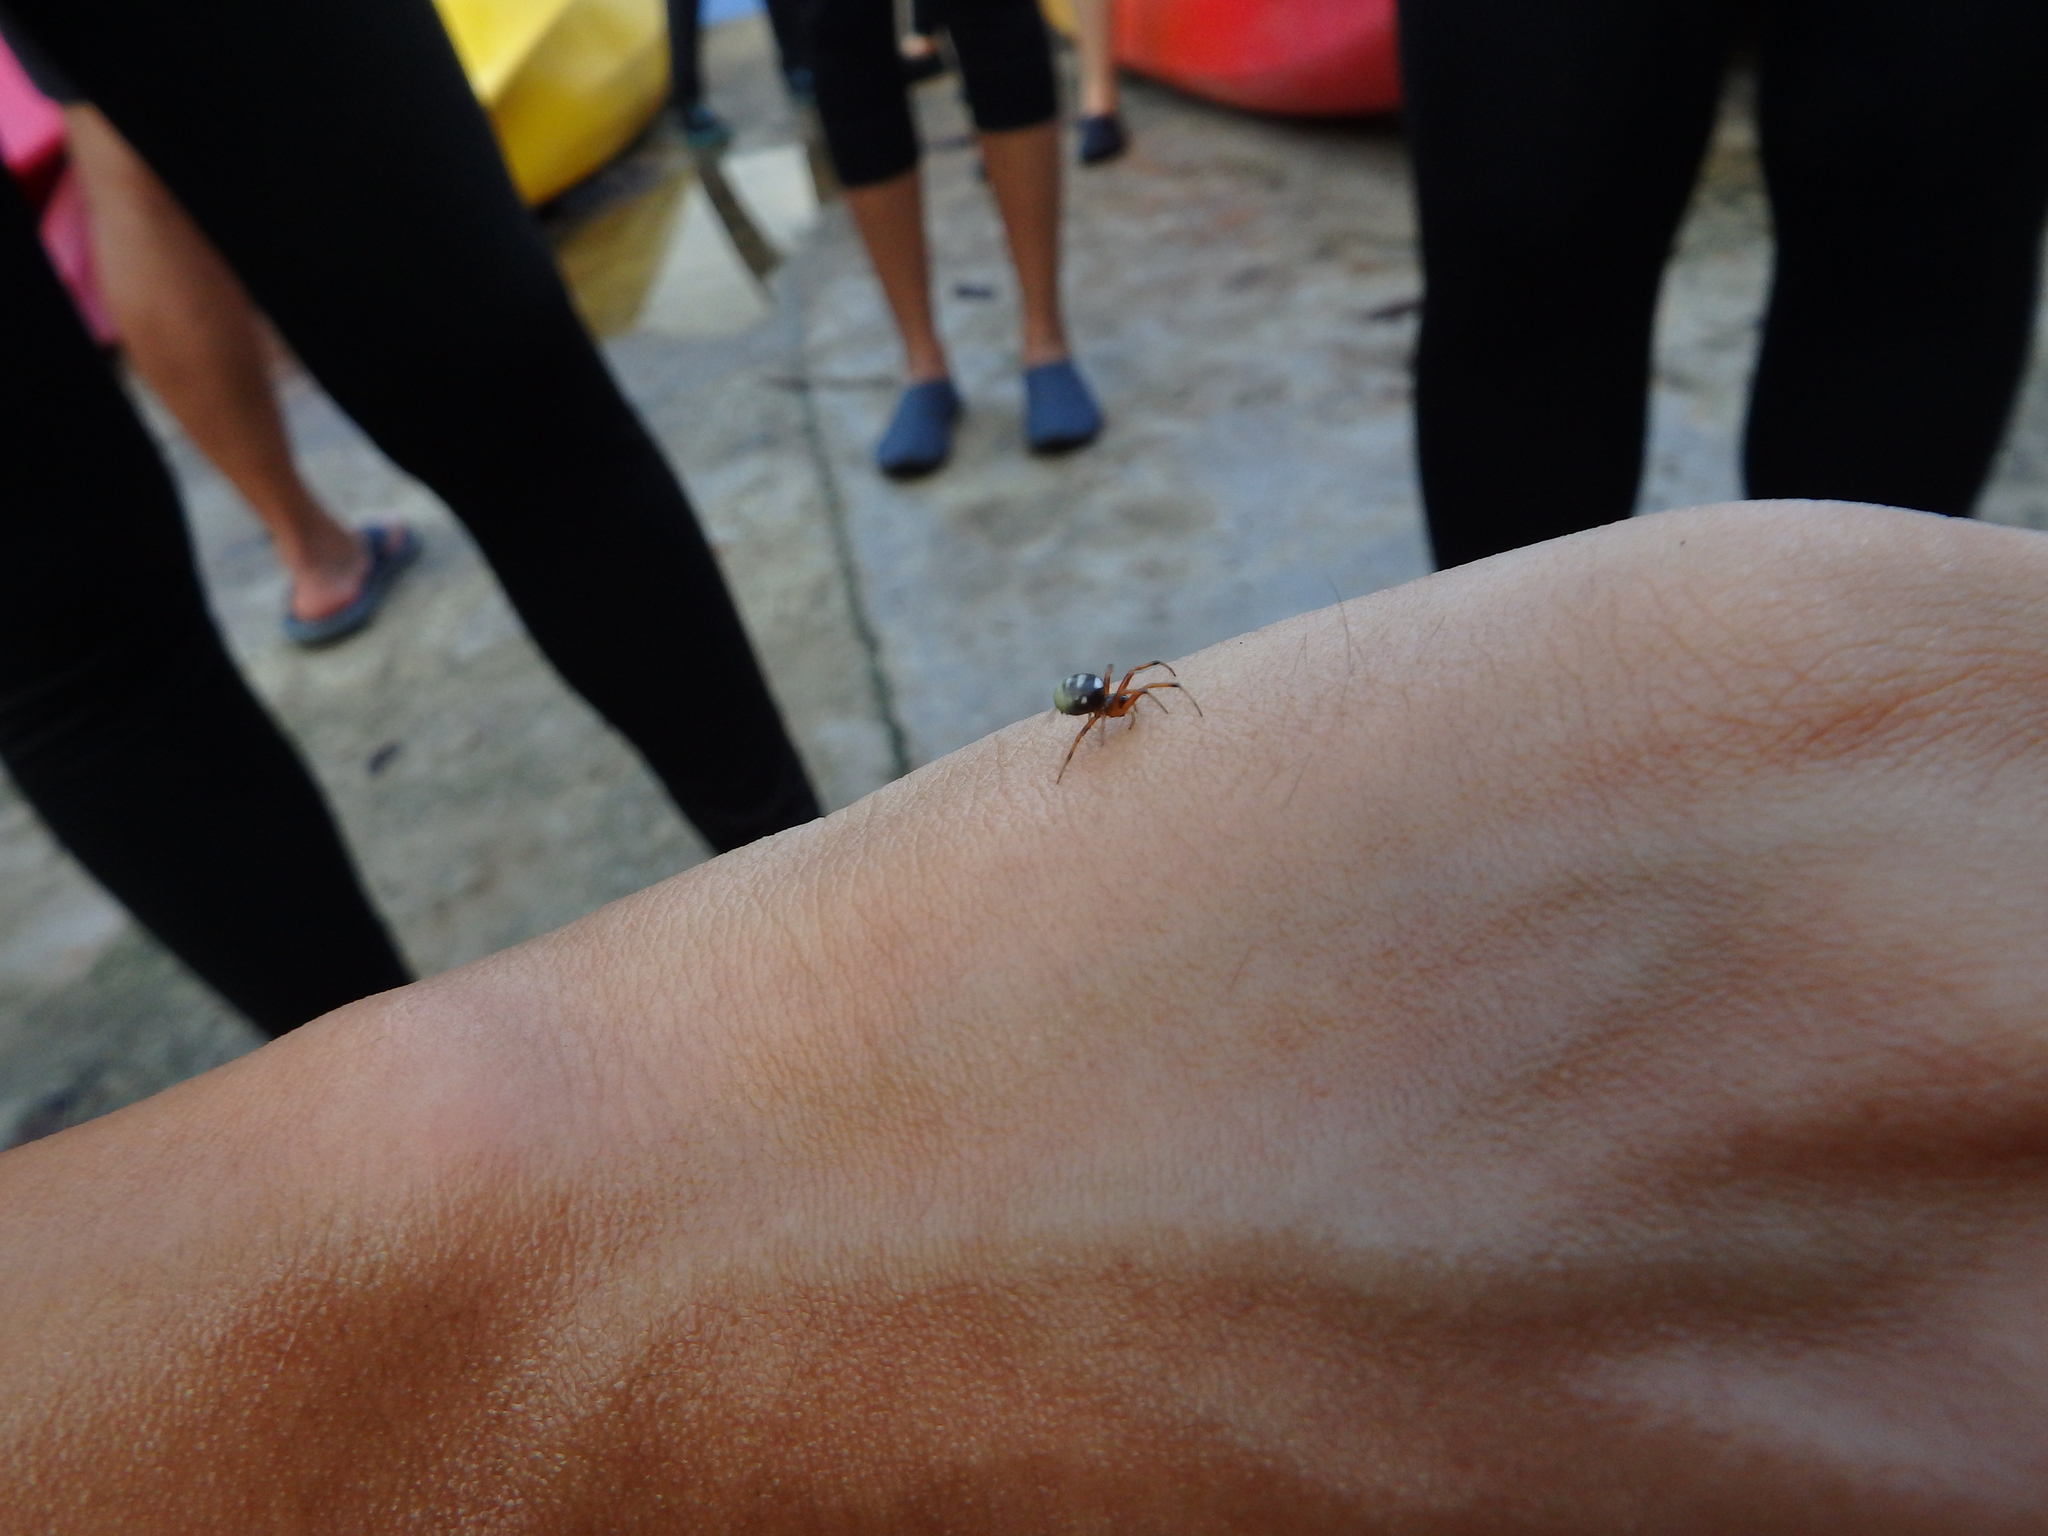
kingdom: Animalia
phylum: Arthropoda
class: Arachnida
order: Araneae
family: Araneidae
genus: Singa
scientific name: Singa perpolita
